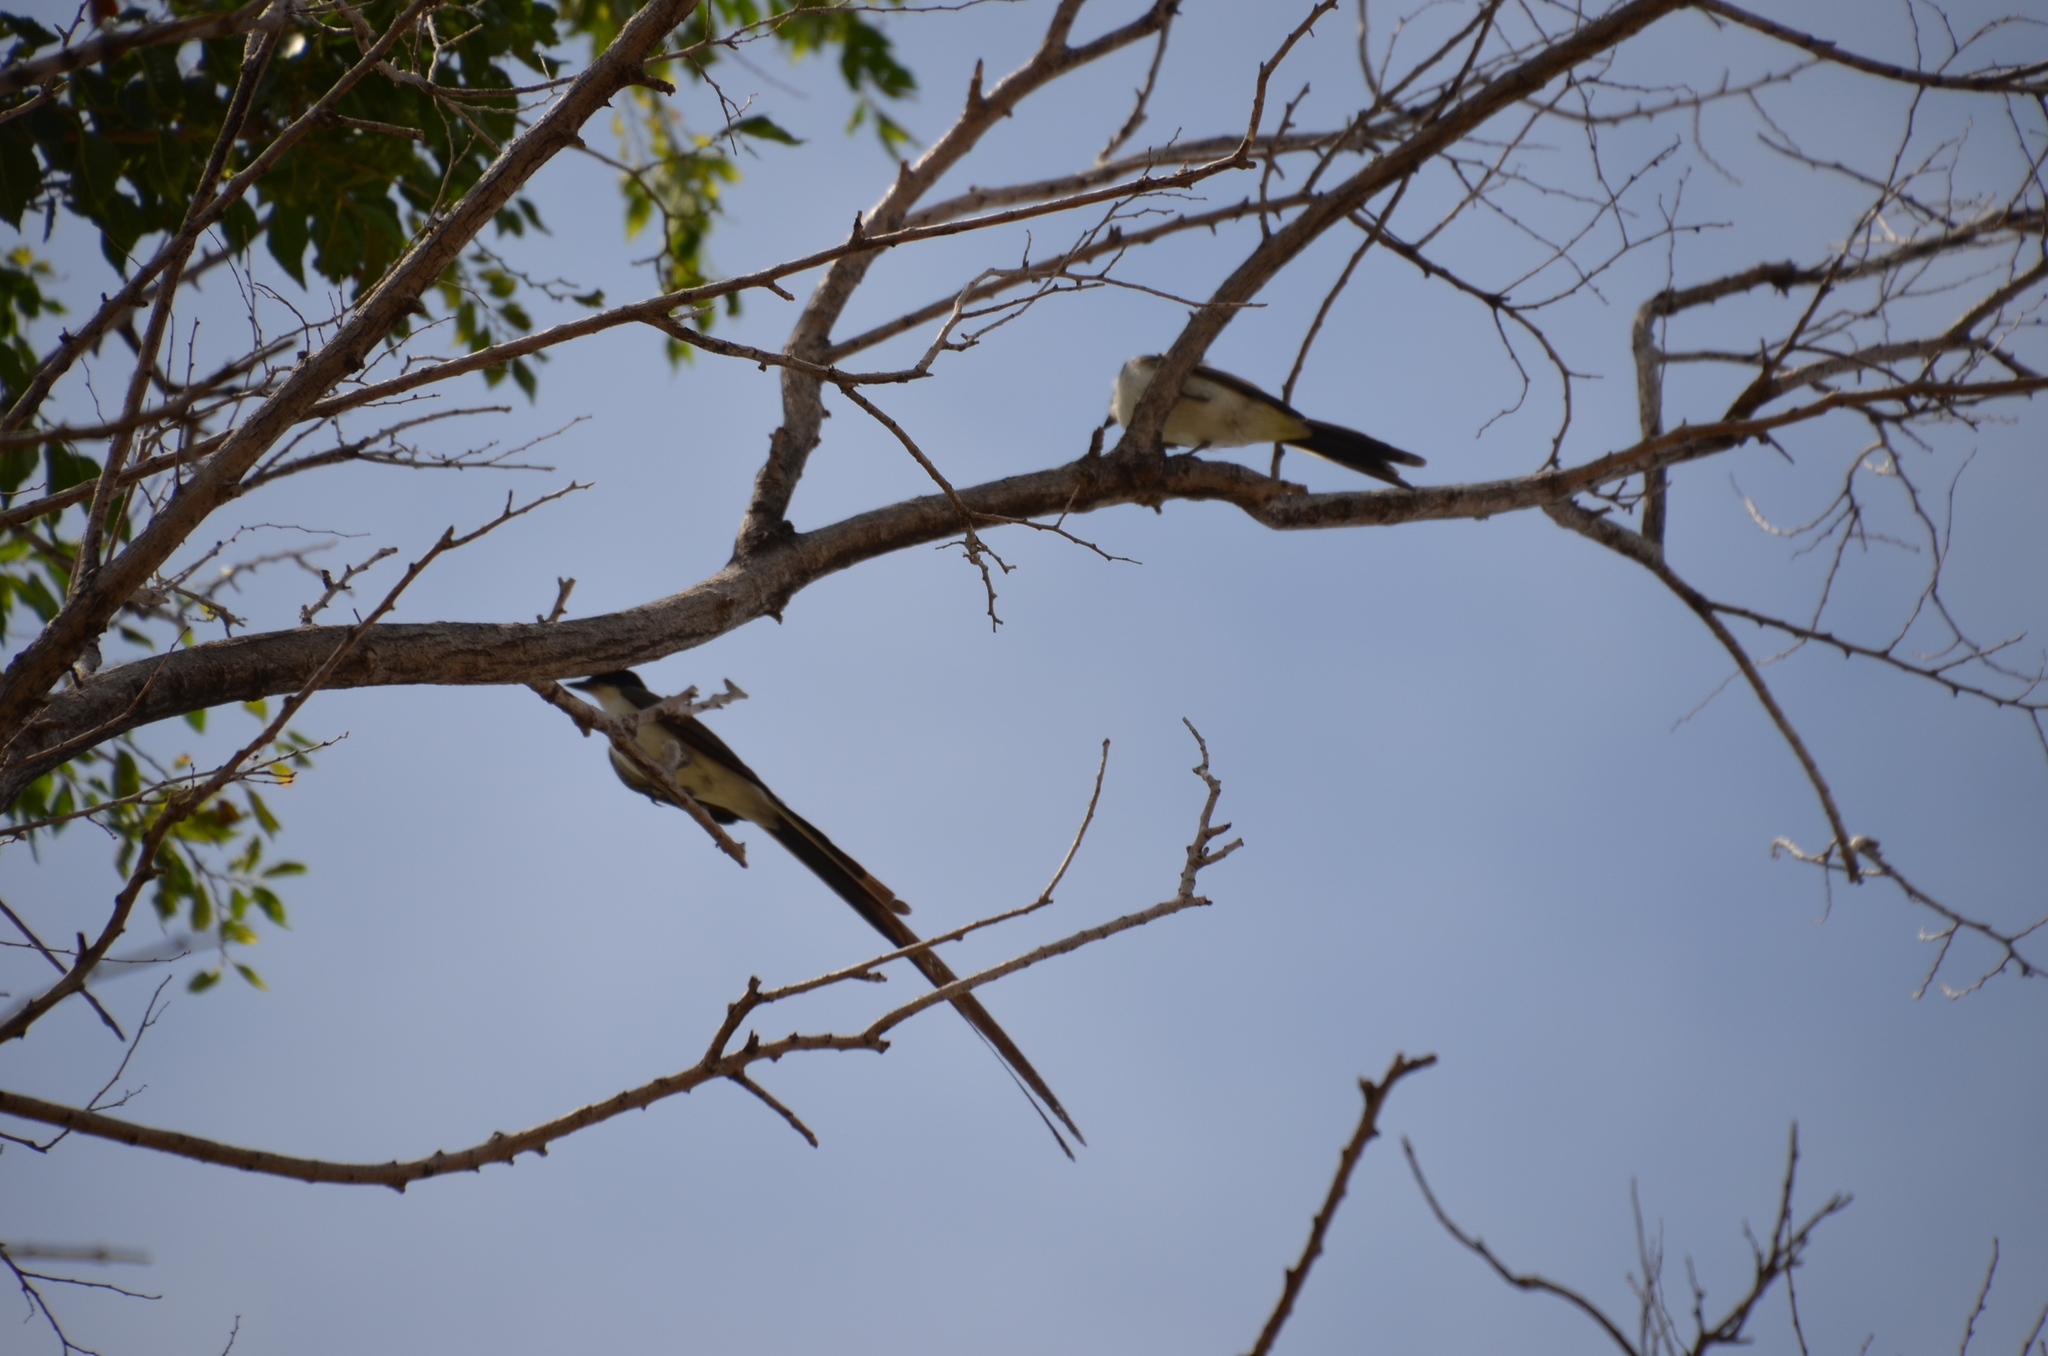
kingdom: Animalia
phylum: Chordata
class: Aves
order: Passeriformes
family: Tyrannidae
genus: Tyrannus
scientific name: Tyrannus savana
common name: Fork-tailed flycatcher
